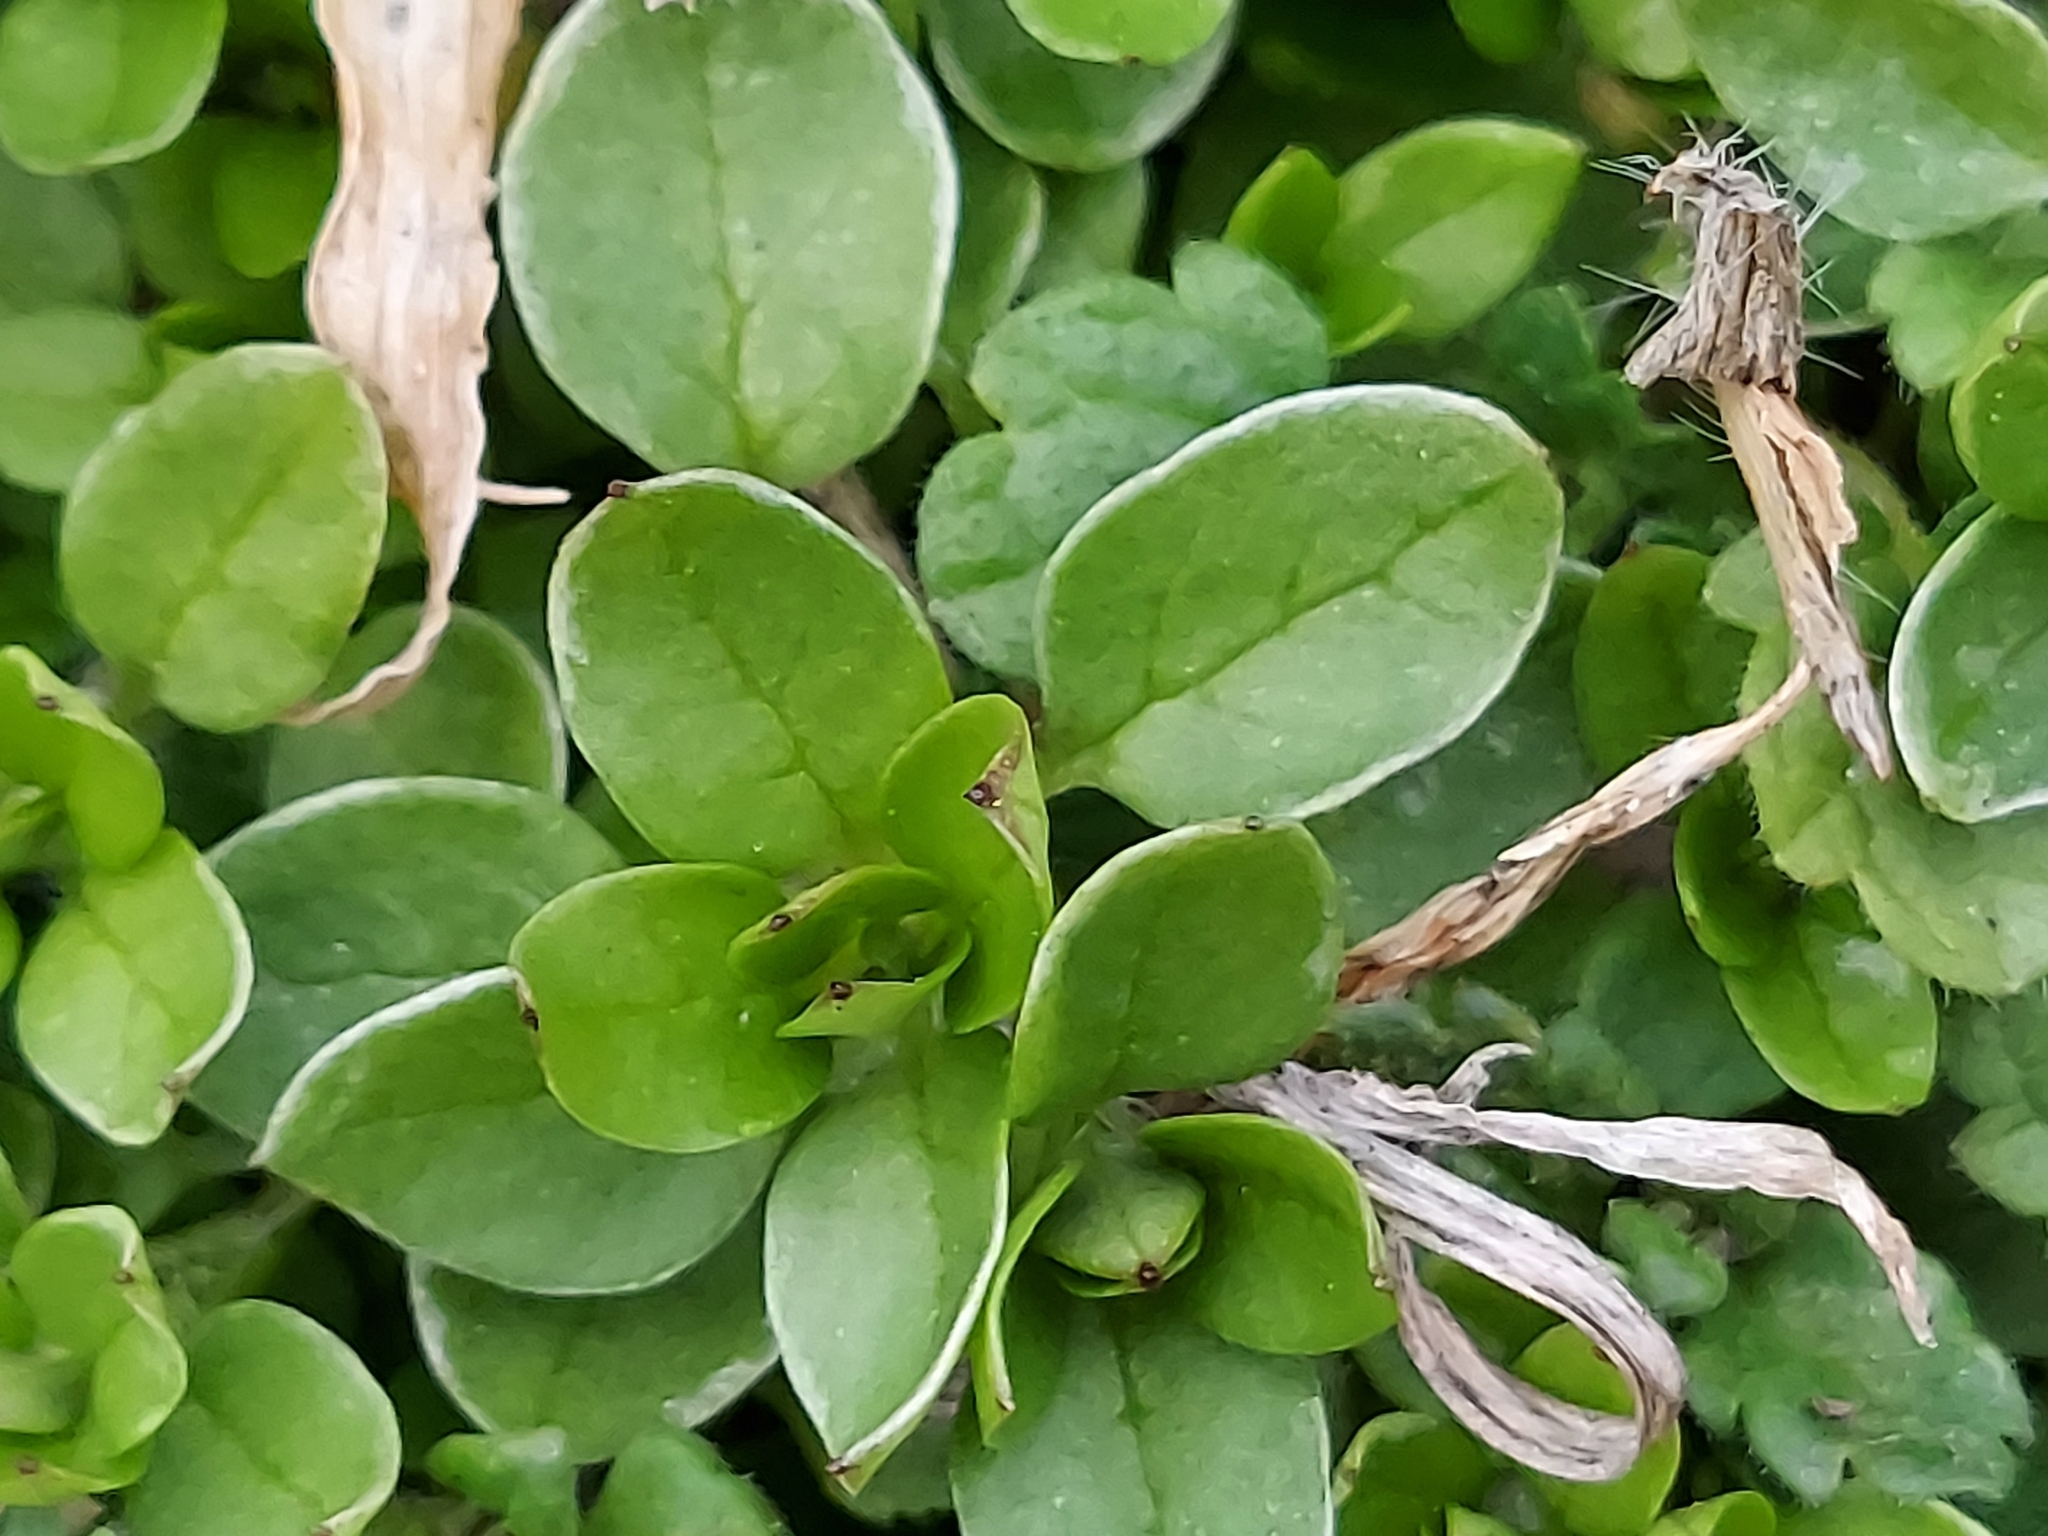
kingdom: Plantae
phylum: Tracheophyta
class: Magnoliopsida
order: Caryophyllales
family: Caryophyllaceae
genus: Stellaria
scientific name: Stellaria media
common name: Common chickweed
